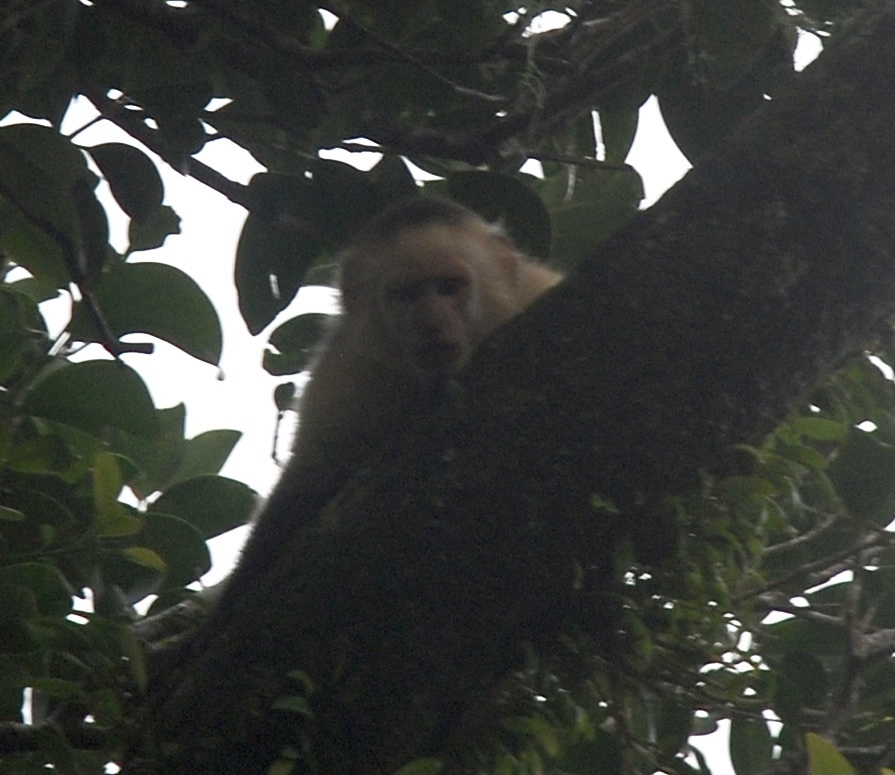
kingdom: Animalia
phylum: Chordata
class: Mammalia
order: Primates
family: Cebidae
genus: Cebus
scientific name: Cebus imitator
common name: Panamanian white-faced capuchin
